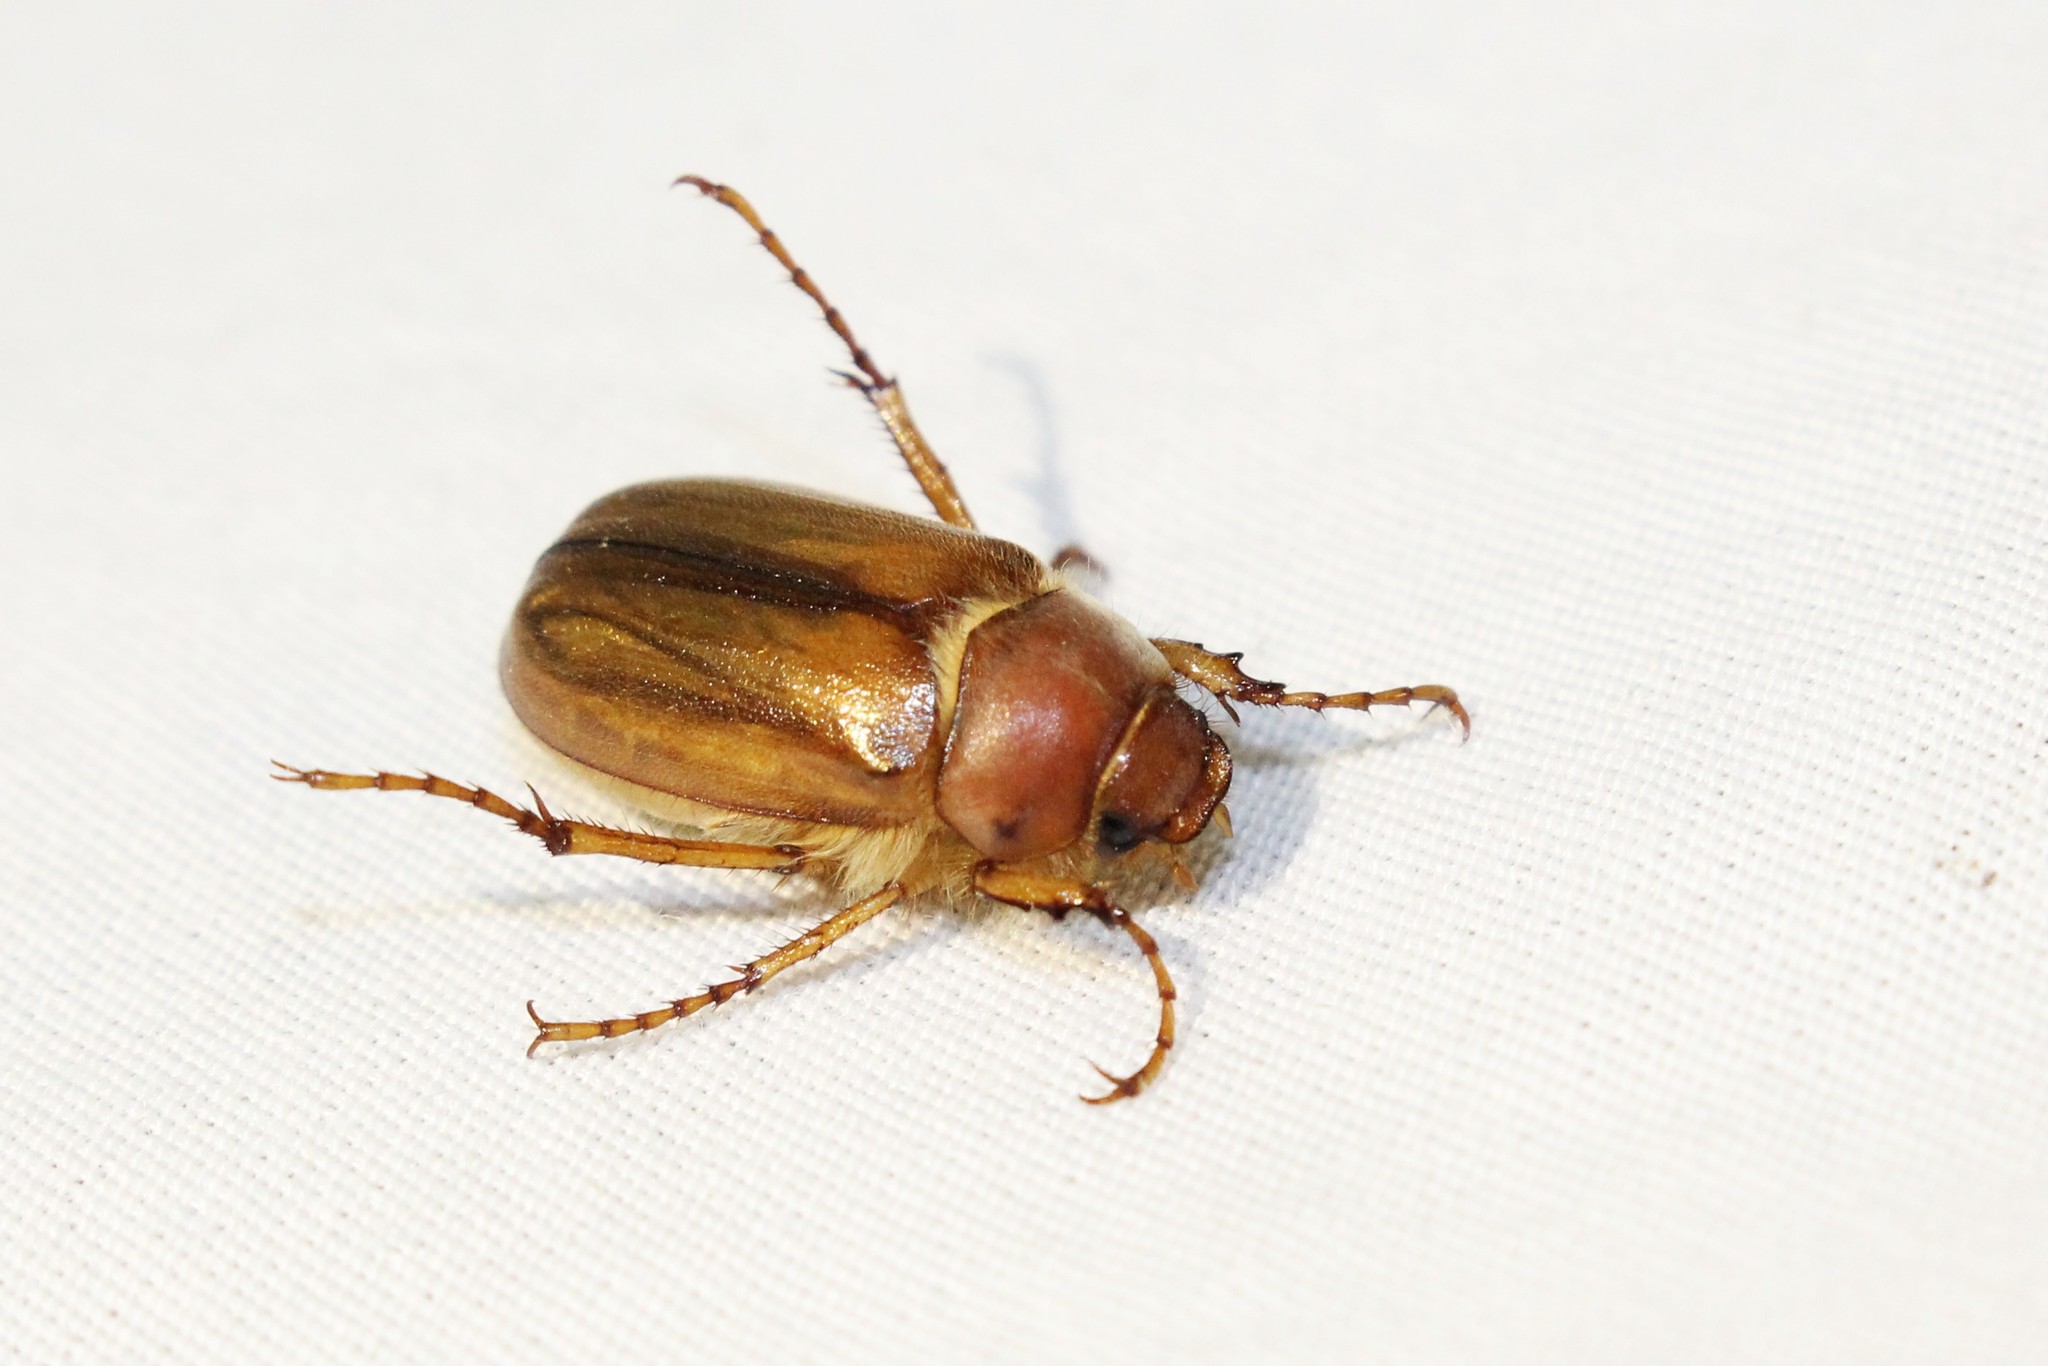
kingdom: Animalia
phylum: Arthropoda
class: Insecta
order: Coleoptera
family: Scarabaeidae
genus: Amphimallon
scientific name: Amphimallon majale
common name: European chafer
